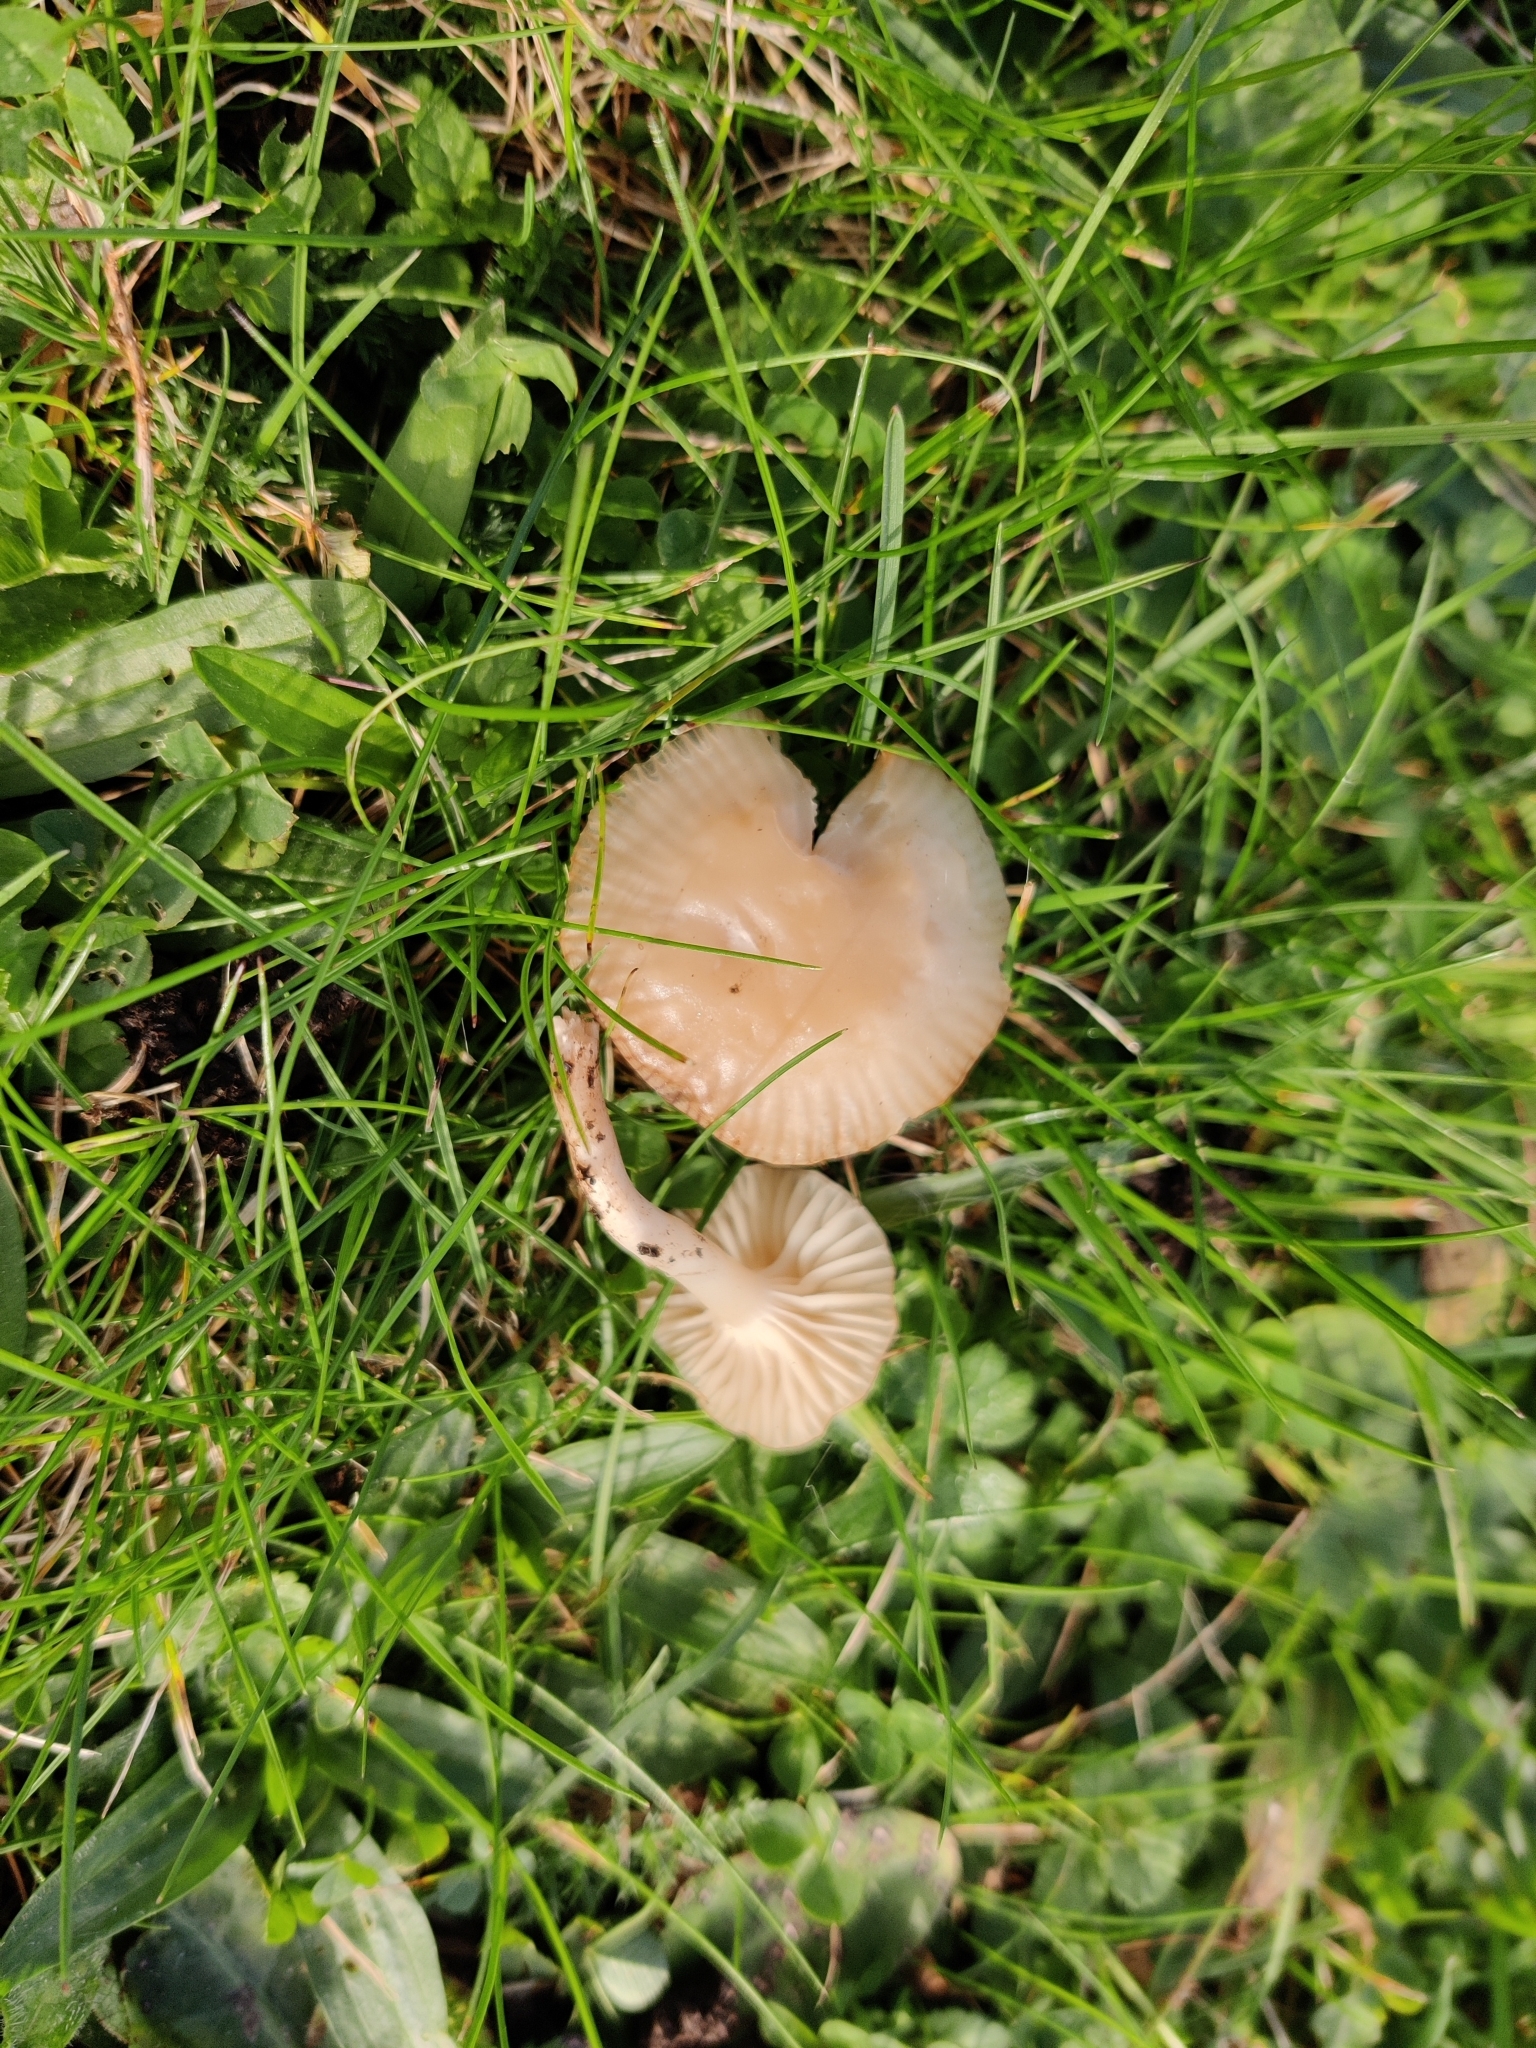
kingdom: Fungi
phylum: Basidiomycota
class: Agaricomycetes
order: Agaricales
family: Hygrophoraceae
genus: Cuphophyllus
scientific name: Cuphophyllus virgineus
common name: Snowy waxcap
